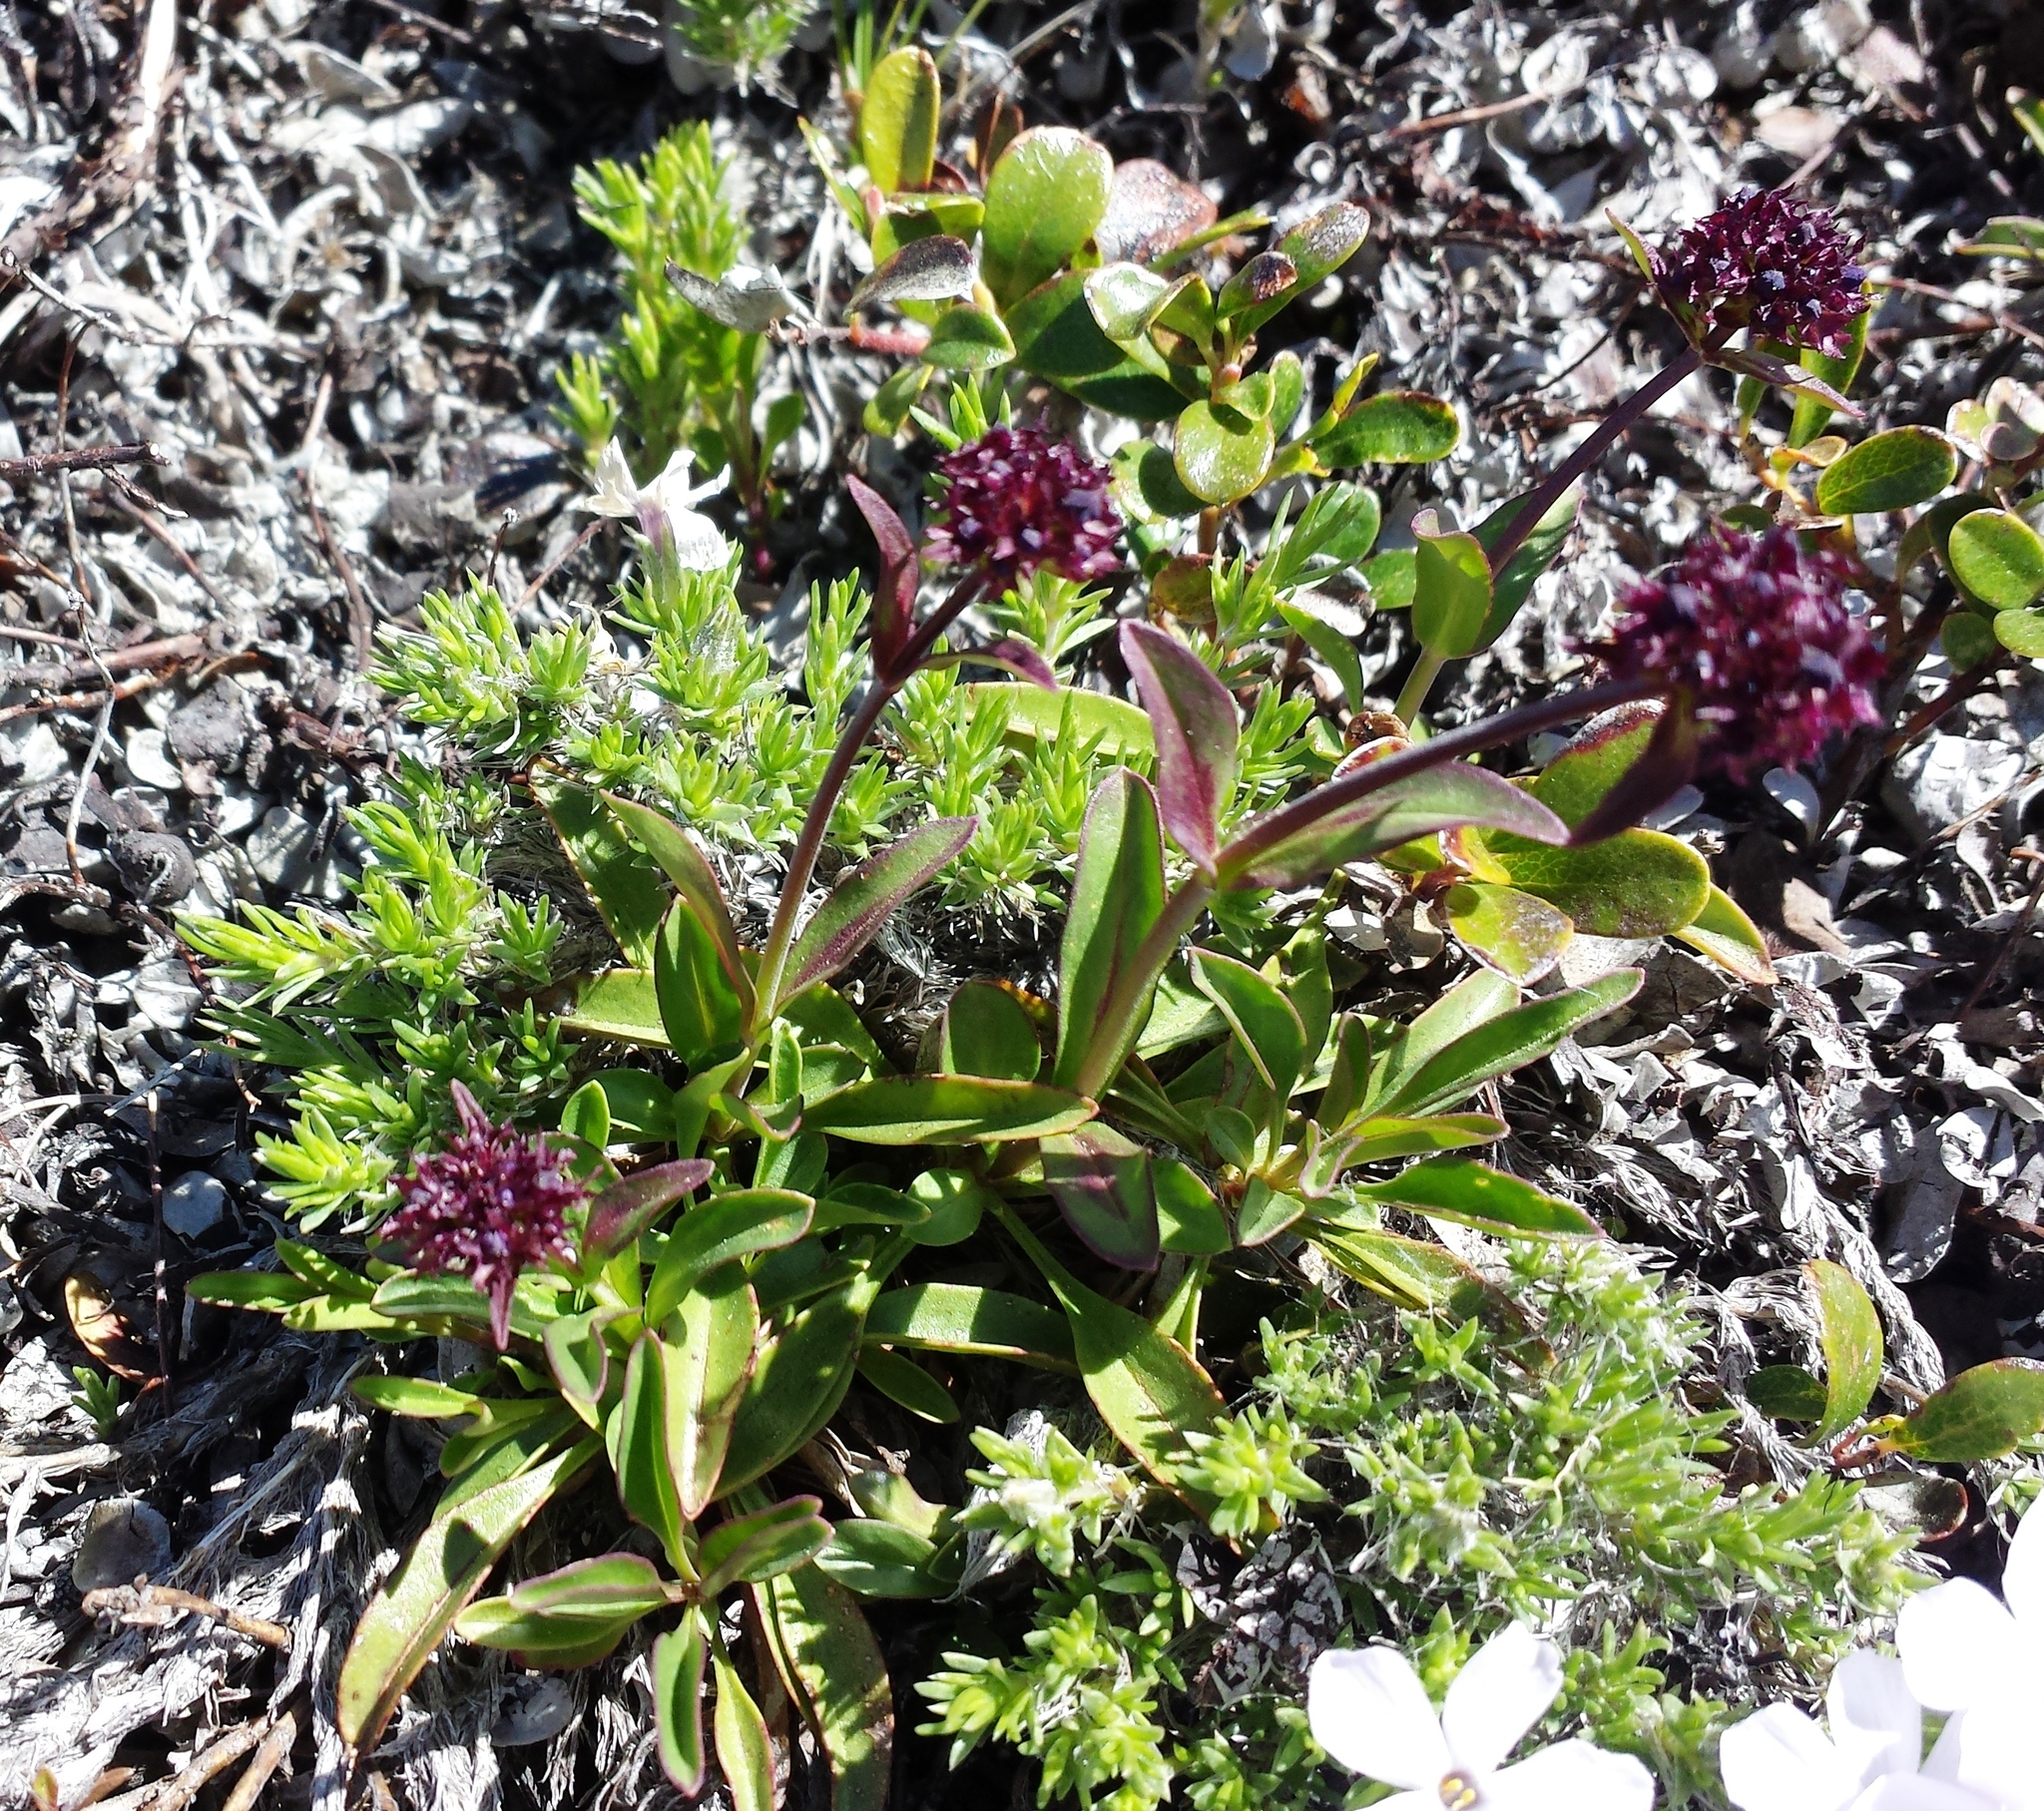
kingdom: Plantae
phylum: Tracheophyta
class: Magnoliopsida
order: Lamiales
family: Plantaginaceae
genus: Penstemon
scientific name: Penstemon procerus
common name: Small-flower penstemon
